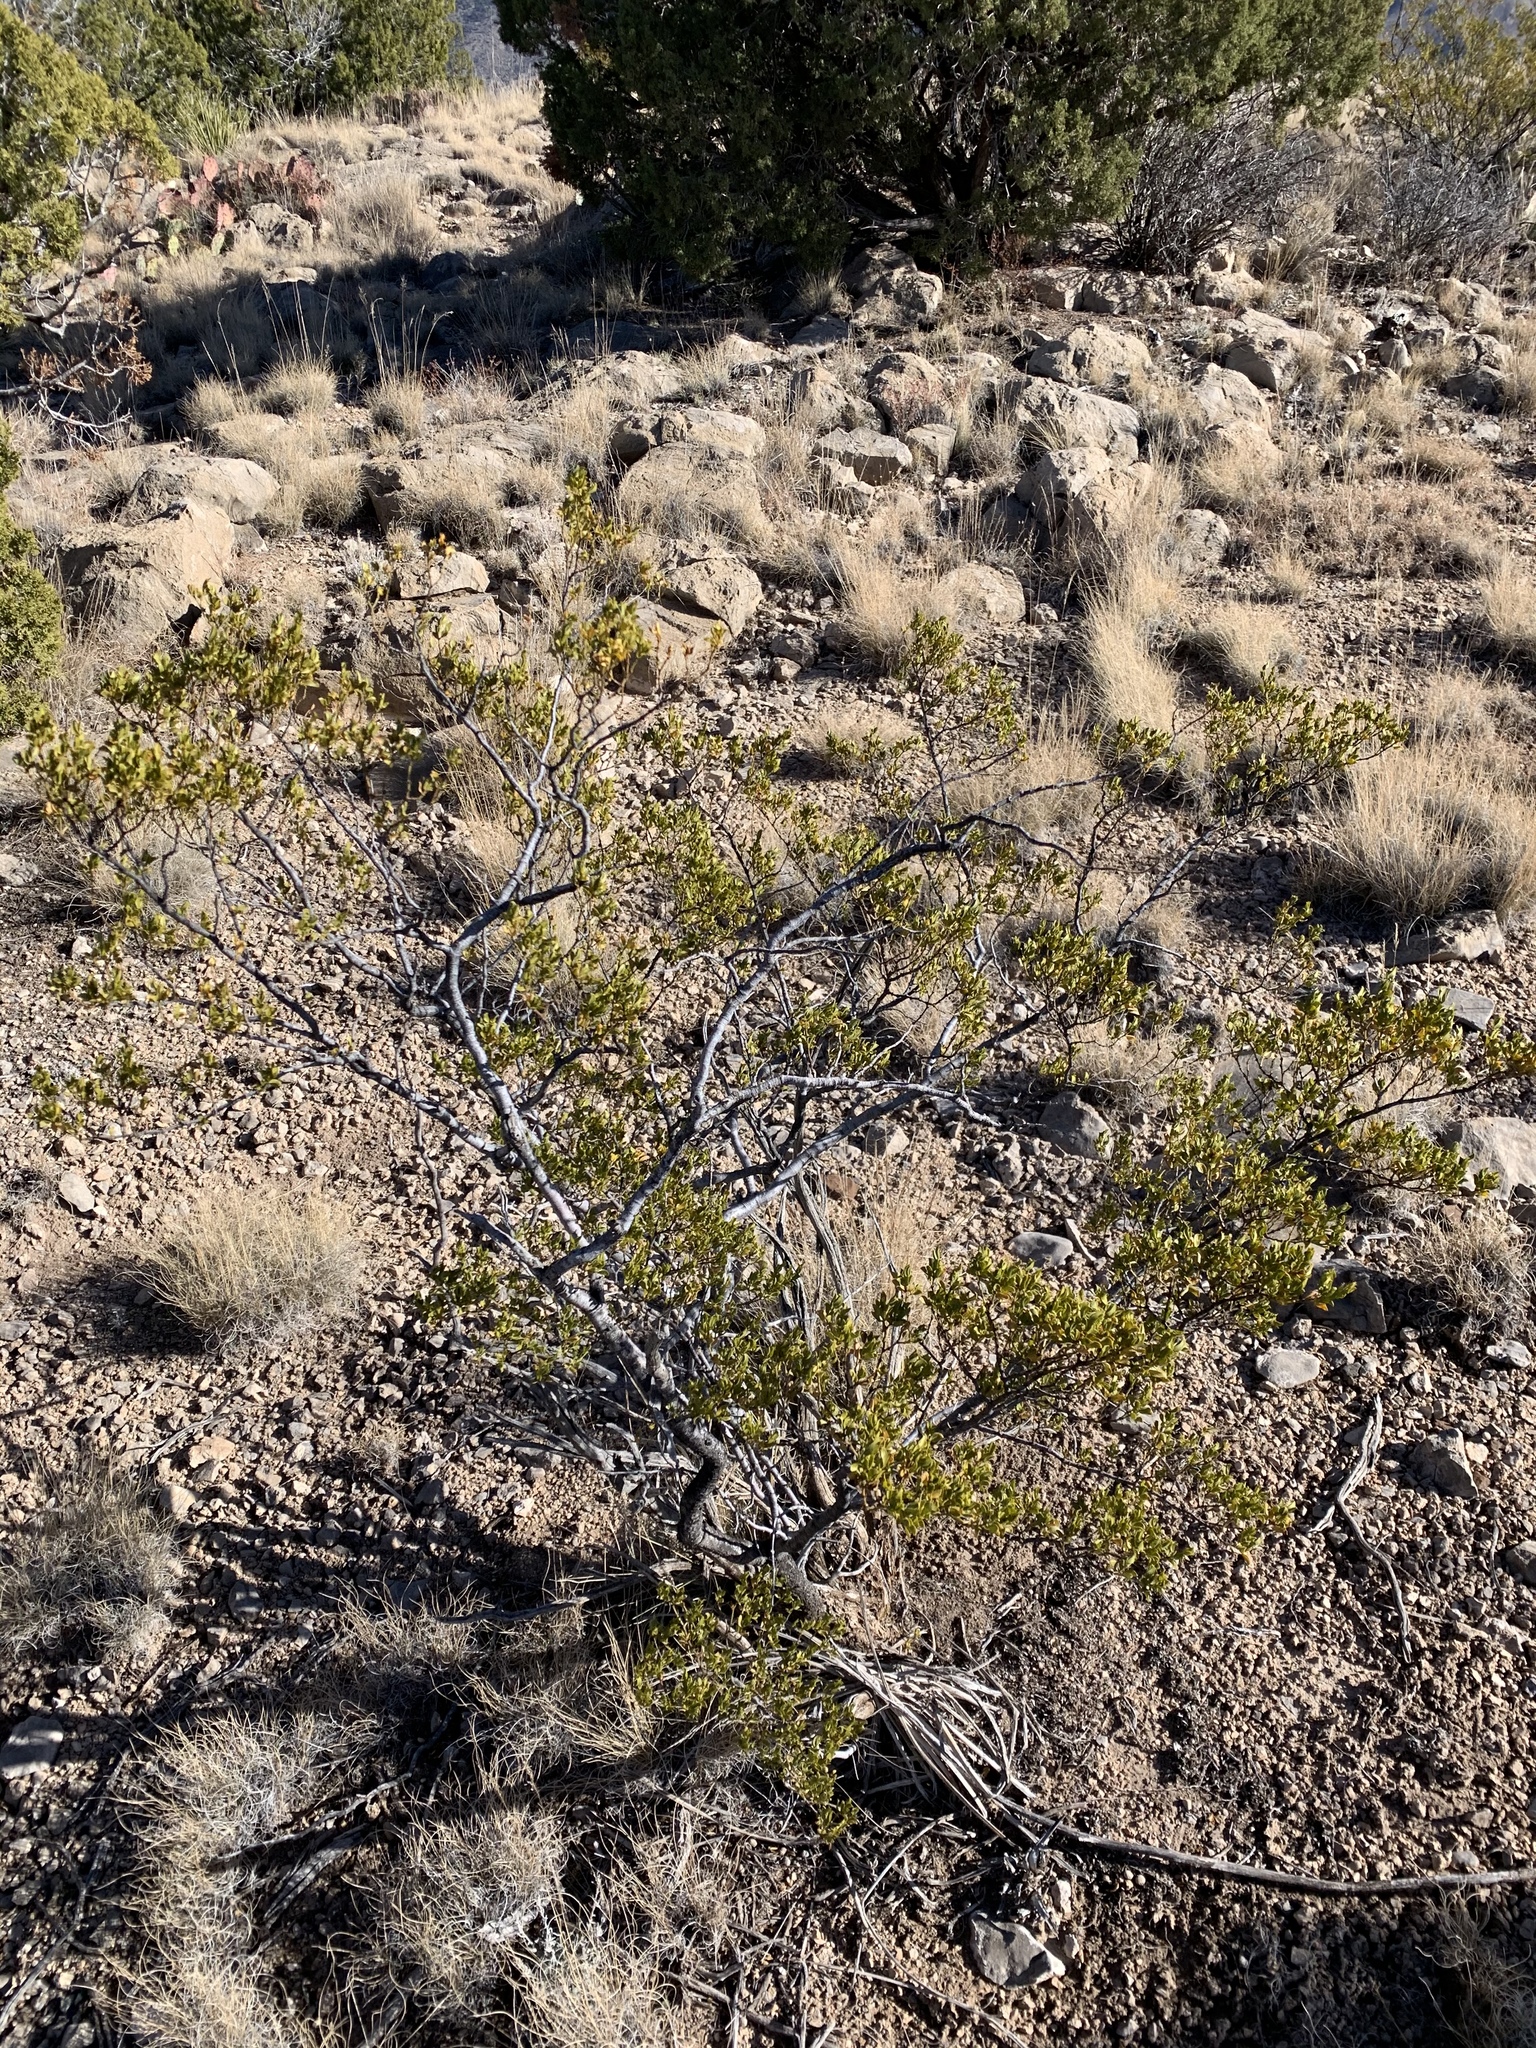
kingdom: Plantae
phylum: Tracheophyta
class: Magnoliopsida
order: Zygophyllales
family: Zygophyllaceae
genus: Larrea
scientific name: Larrea tridentata
